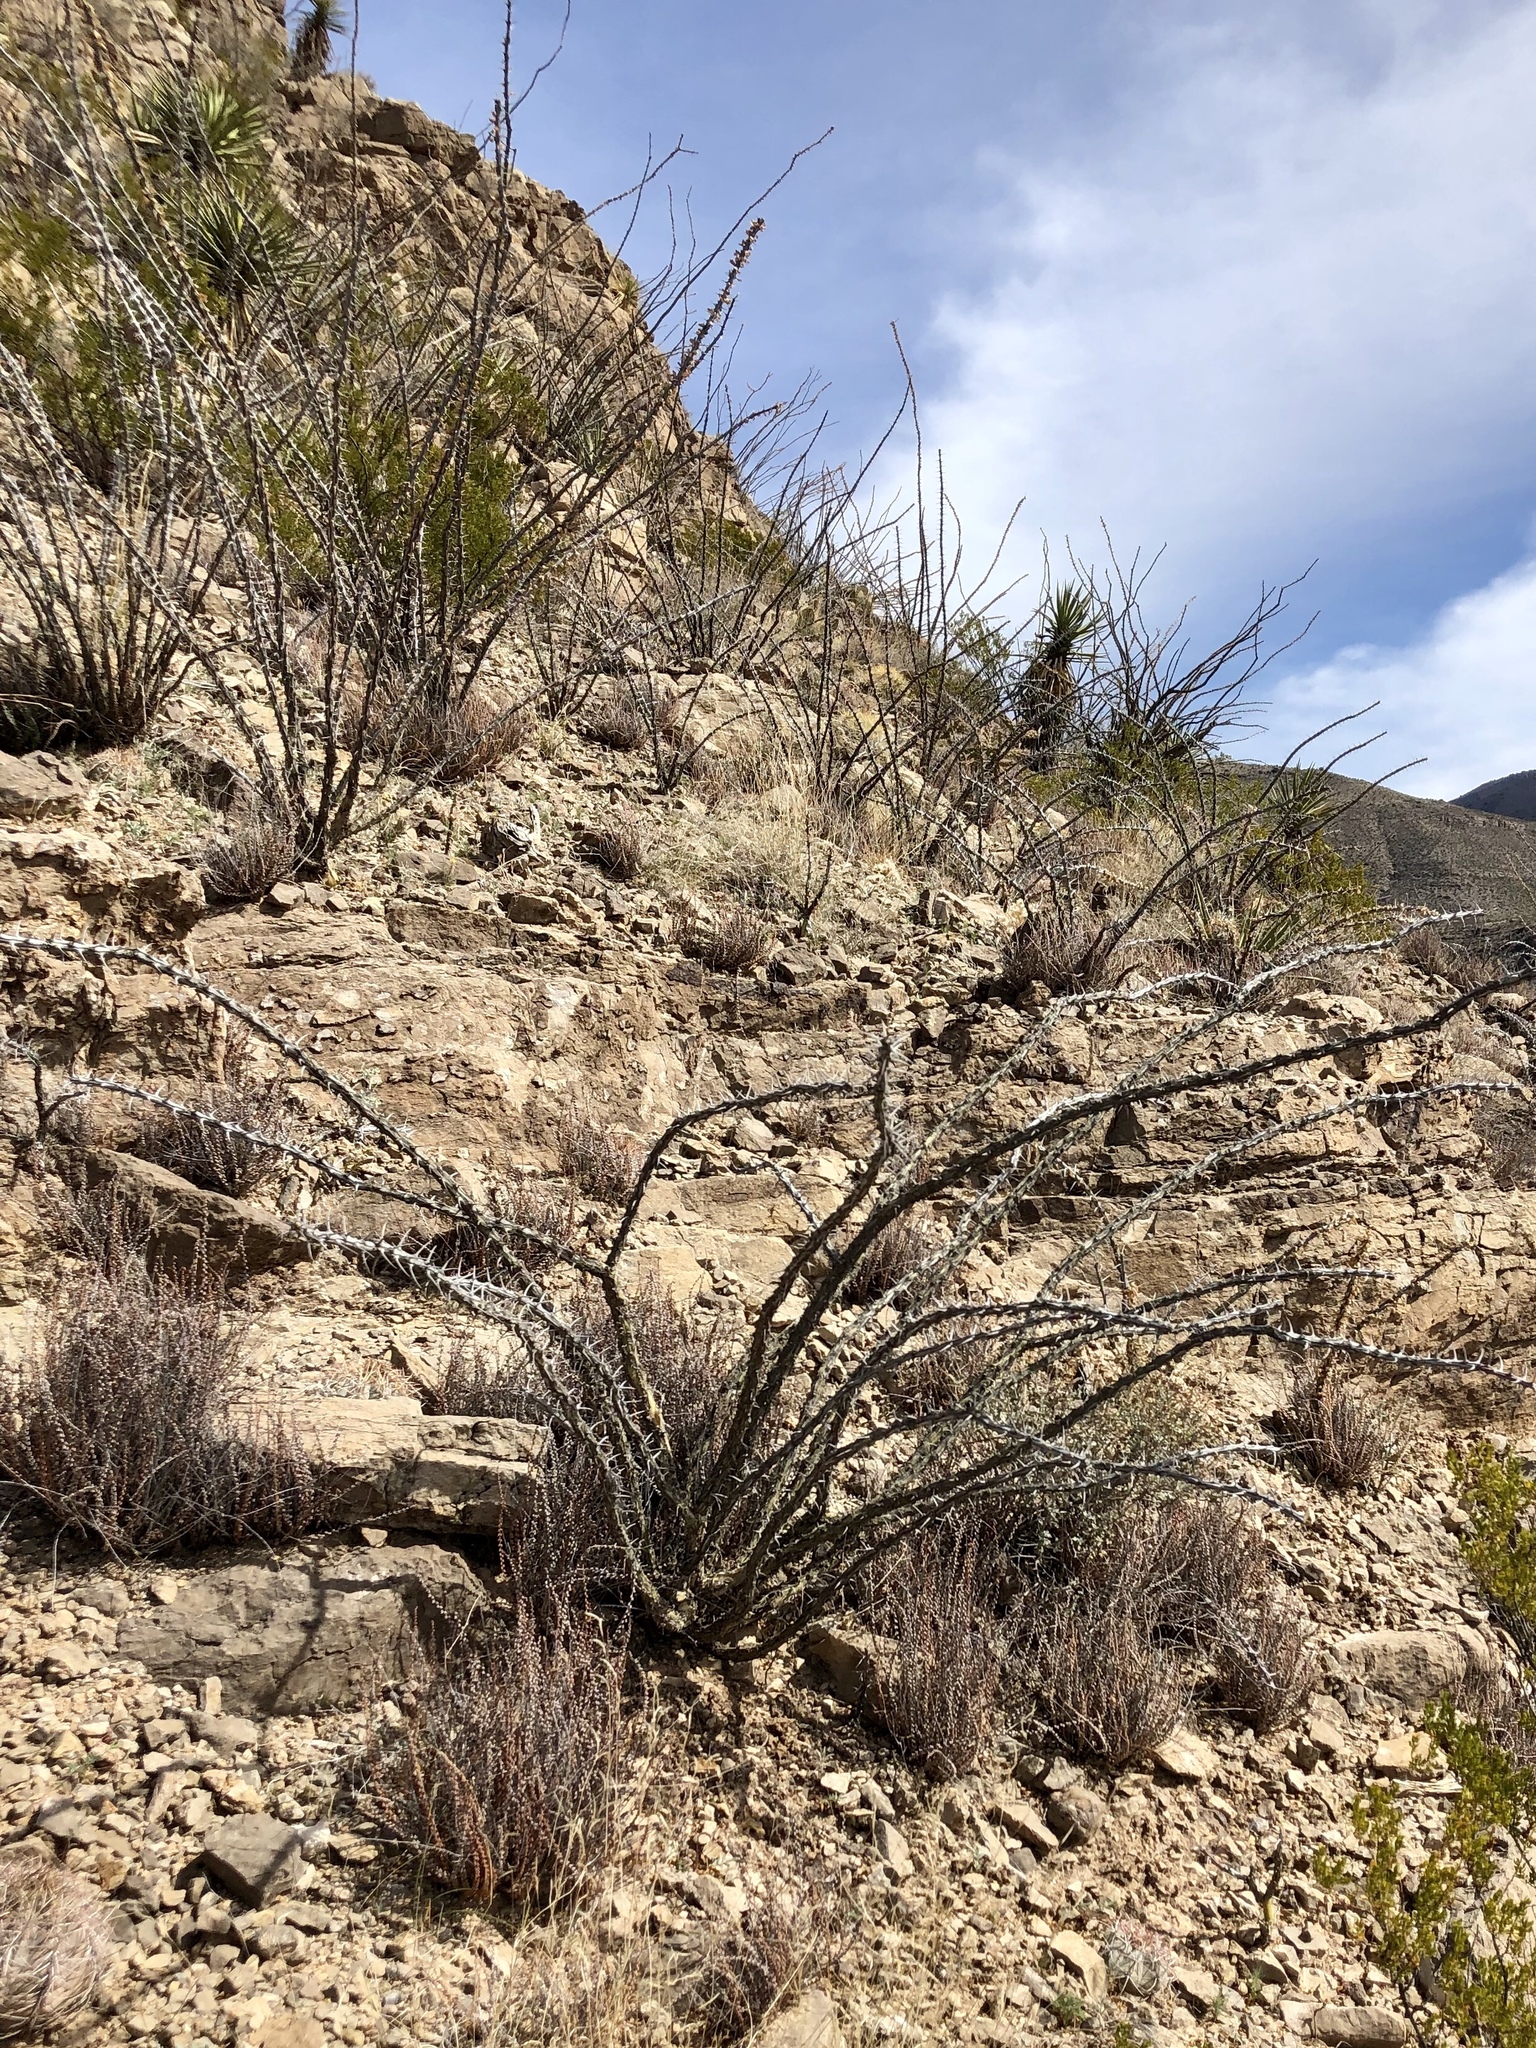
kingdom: Plantae
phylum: Tracheophyta
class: Magnoliopsida
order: Ericales
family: Fouquieriaceae
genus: Fouquieria
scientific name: Fouquieria splendens
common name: Vine-cactus
